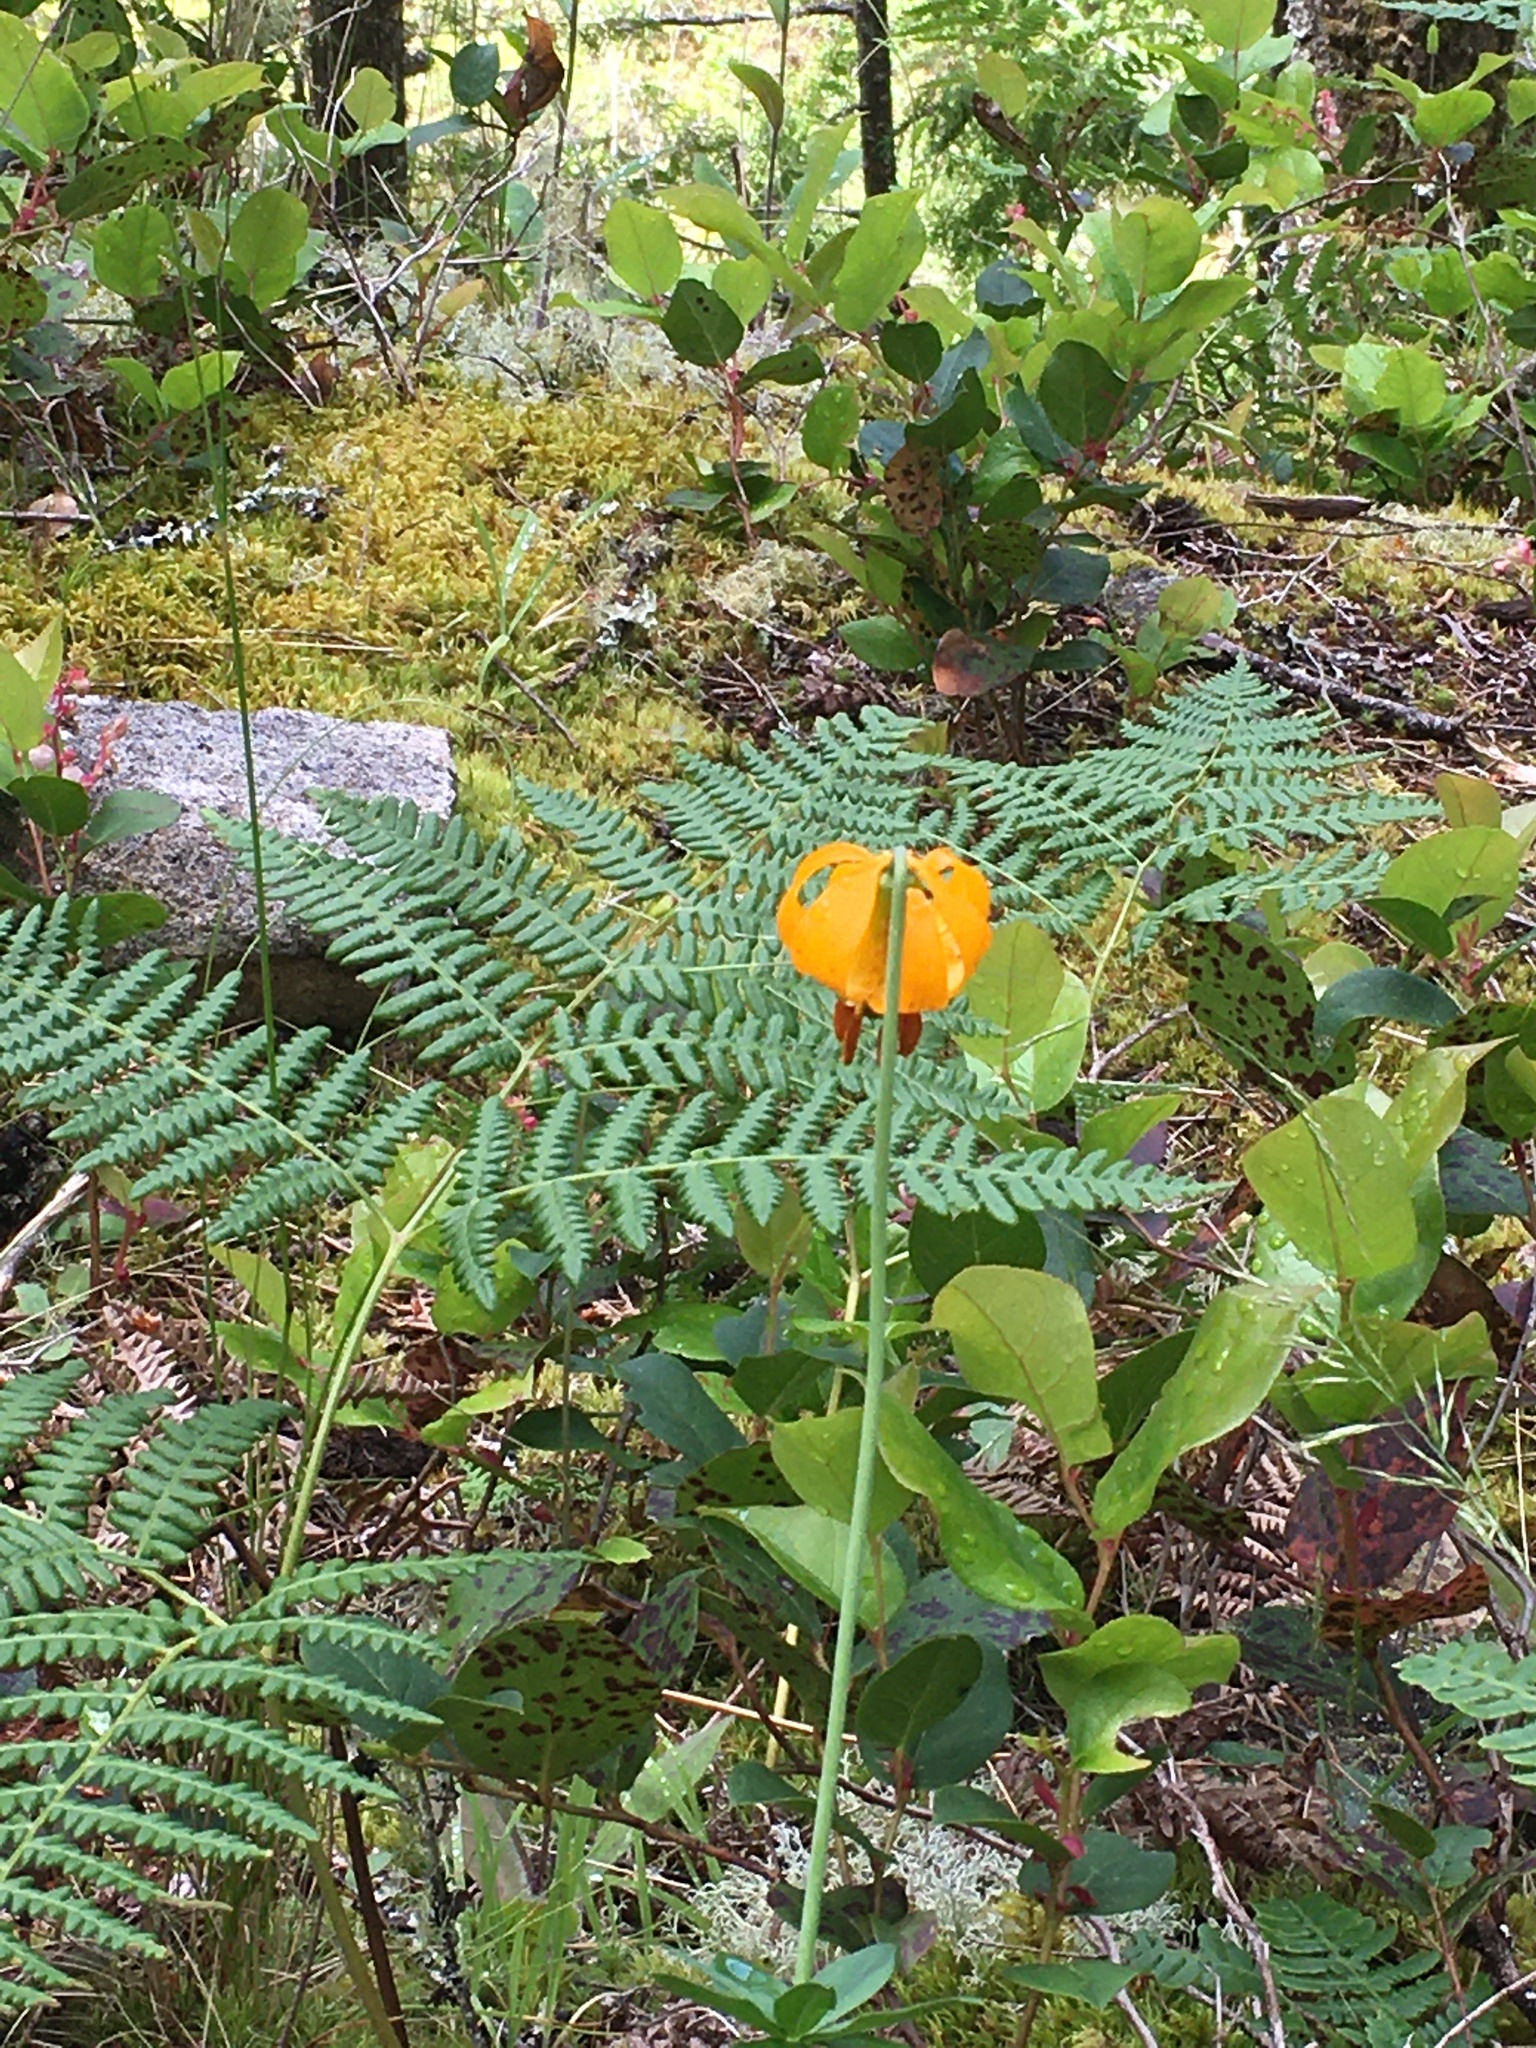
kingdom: Plantae
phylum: Tracheophyta
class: Liliopsida
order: Liliales
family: Liliaceae
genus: Lilium
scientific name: Lilium columbianum
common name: Columbia lily
